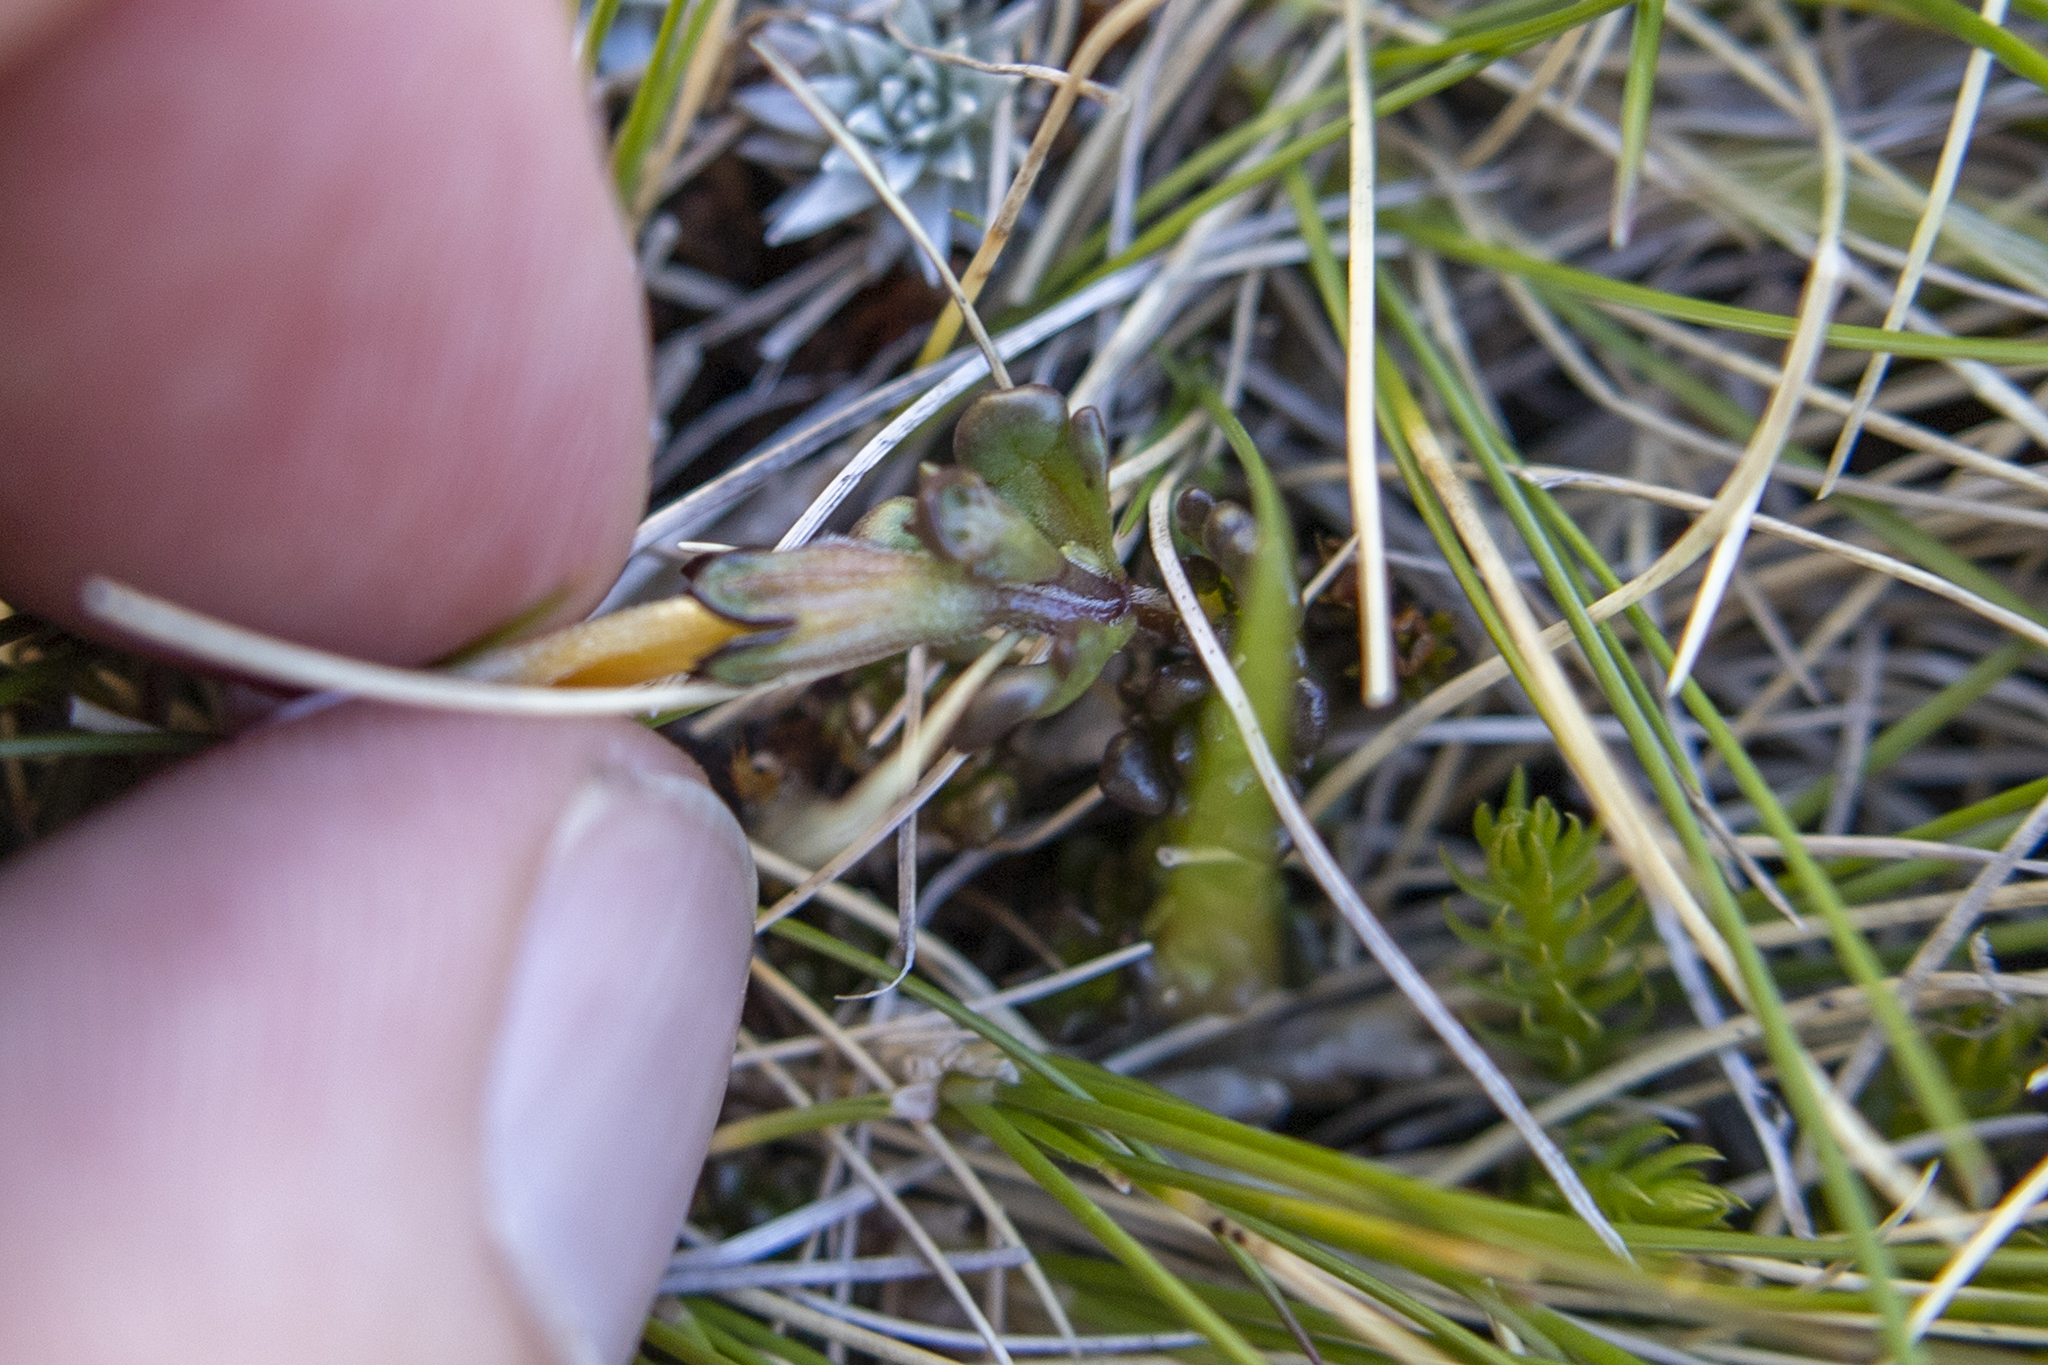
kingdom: Plantae
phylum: Tracheophyta
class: Magnoliopsida
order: Lamiales
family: Orobanchaceae
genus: Euphrasia
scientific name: Euphrasia revoluta
